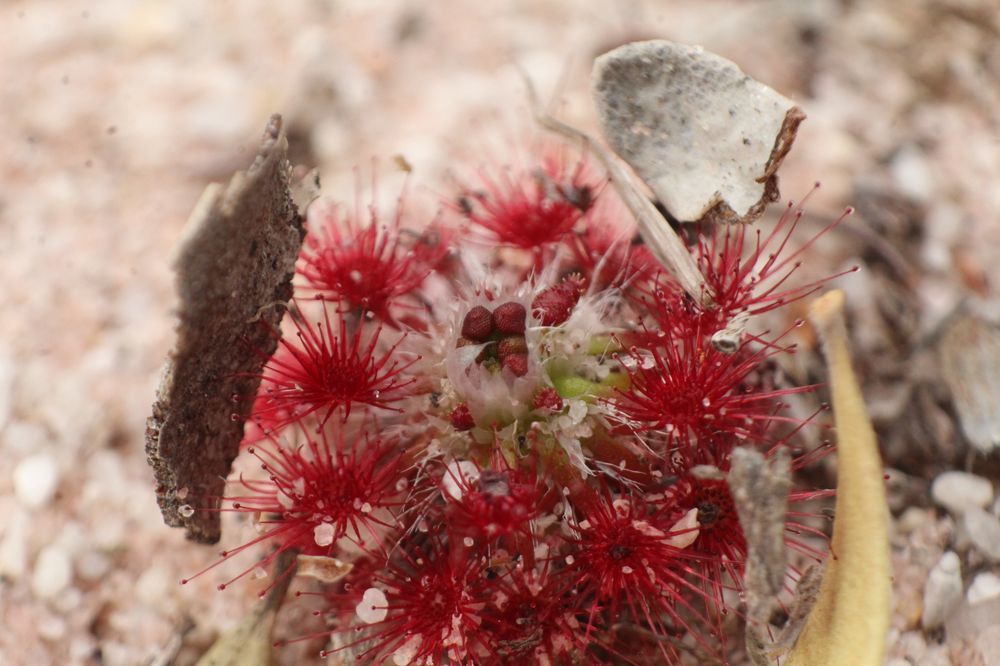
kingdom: Plantae
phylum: Tracheophyta
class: Magnoliopsida
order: Caryophyllales
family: Droseraceae
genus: Drosera
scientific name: Drosera paleacea
